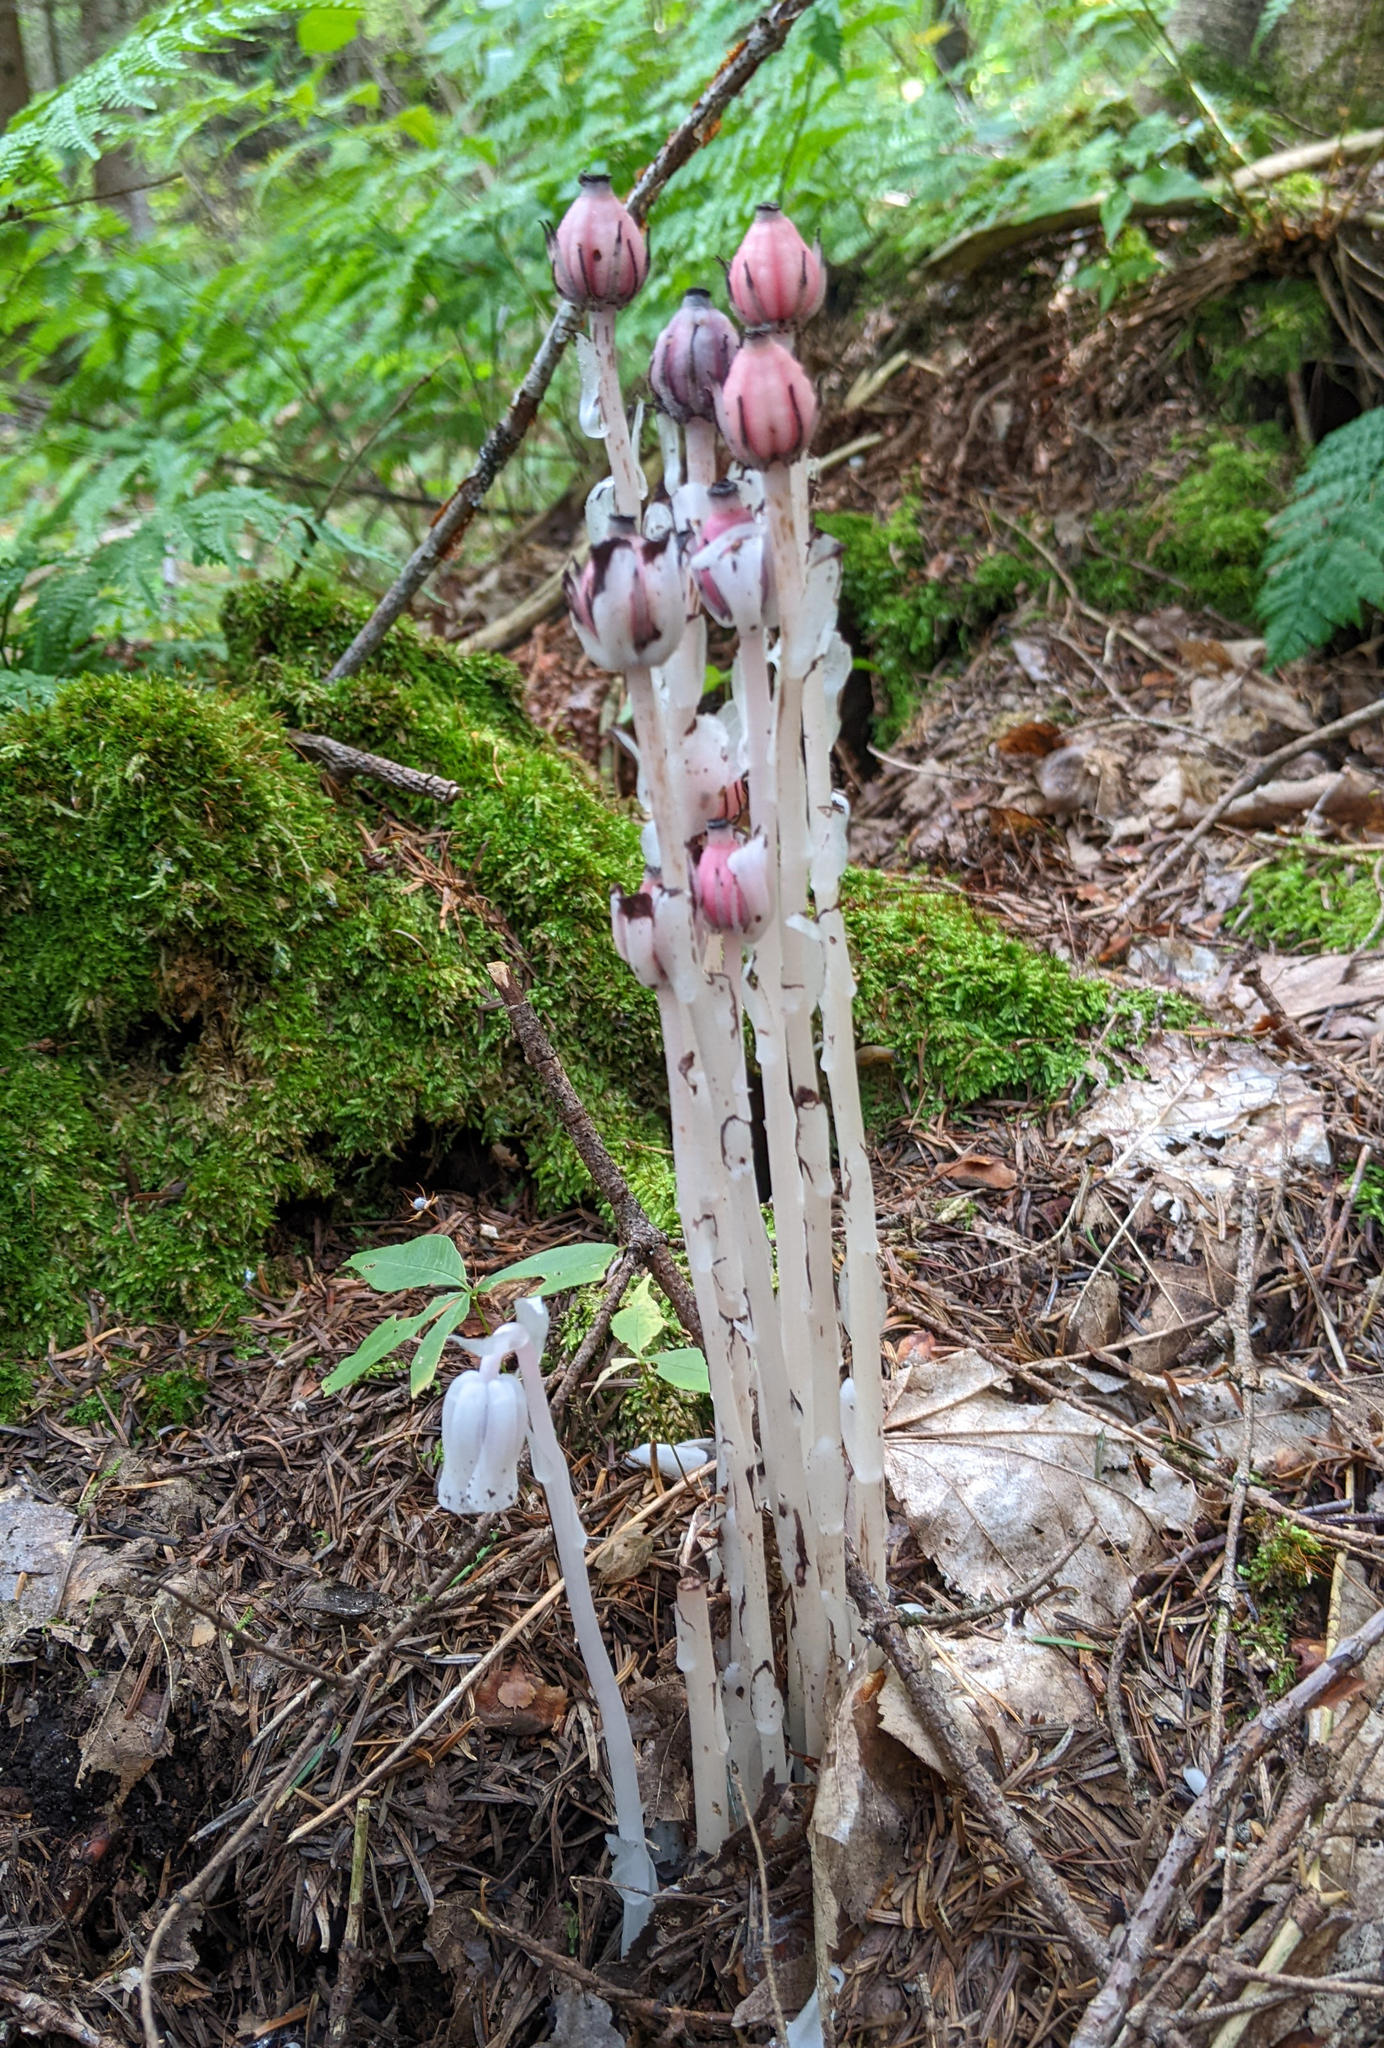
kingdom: Plantae
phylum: Tracheophyta
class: Magnoliopsida
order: Ericales
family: Ericaceae
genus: Monotropa
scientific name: Monotropa uniflora
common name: Convulsion root
